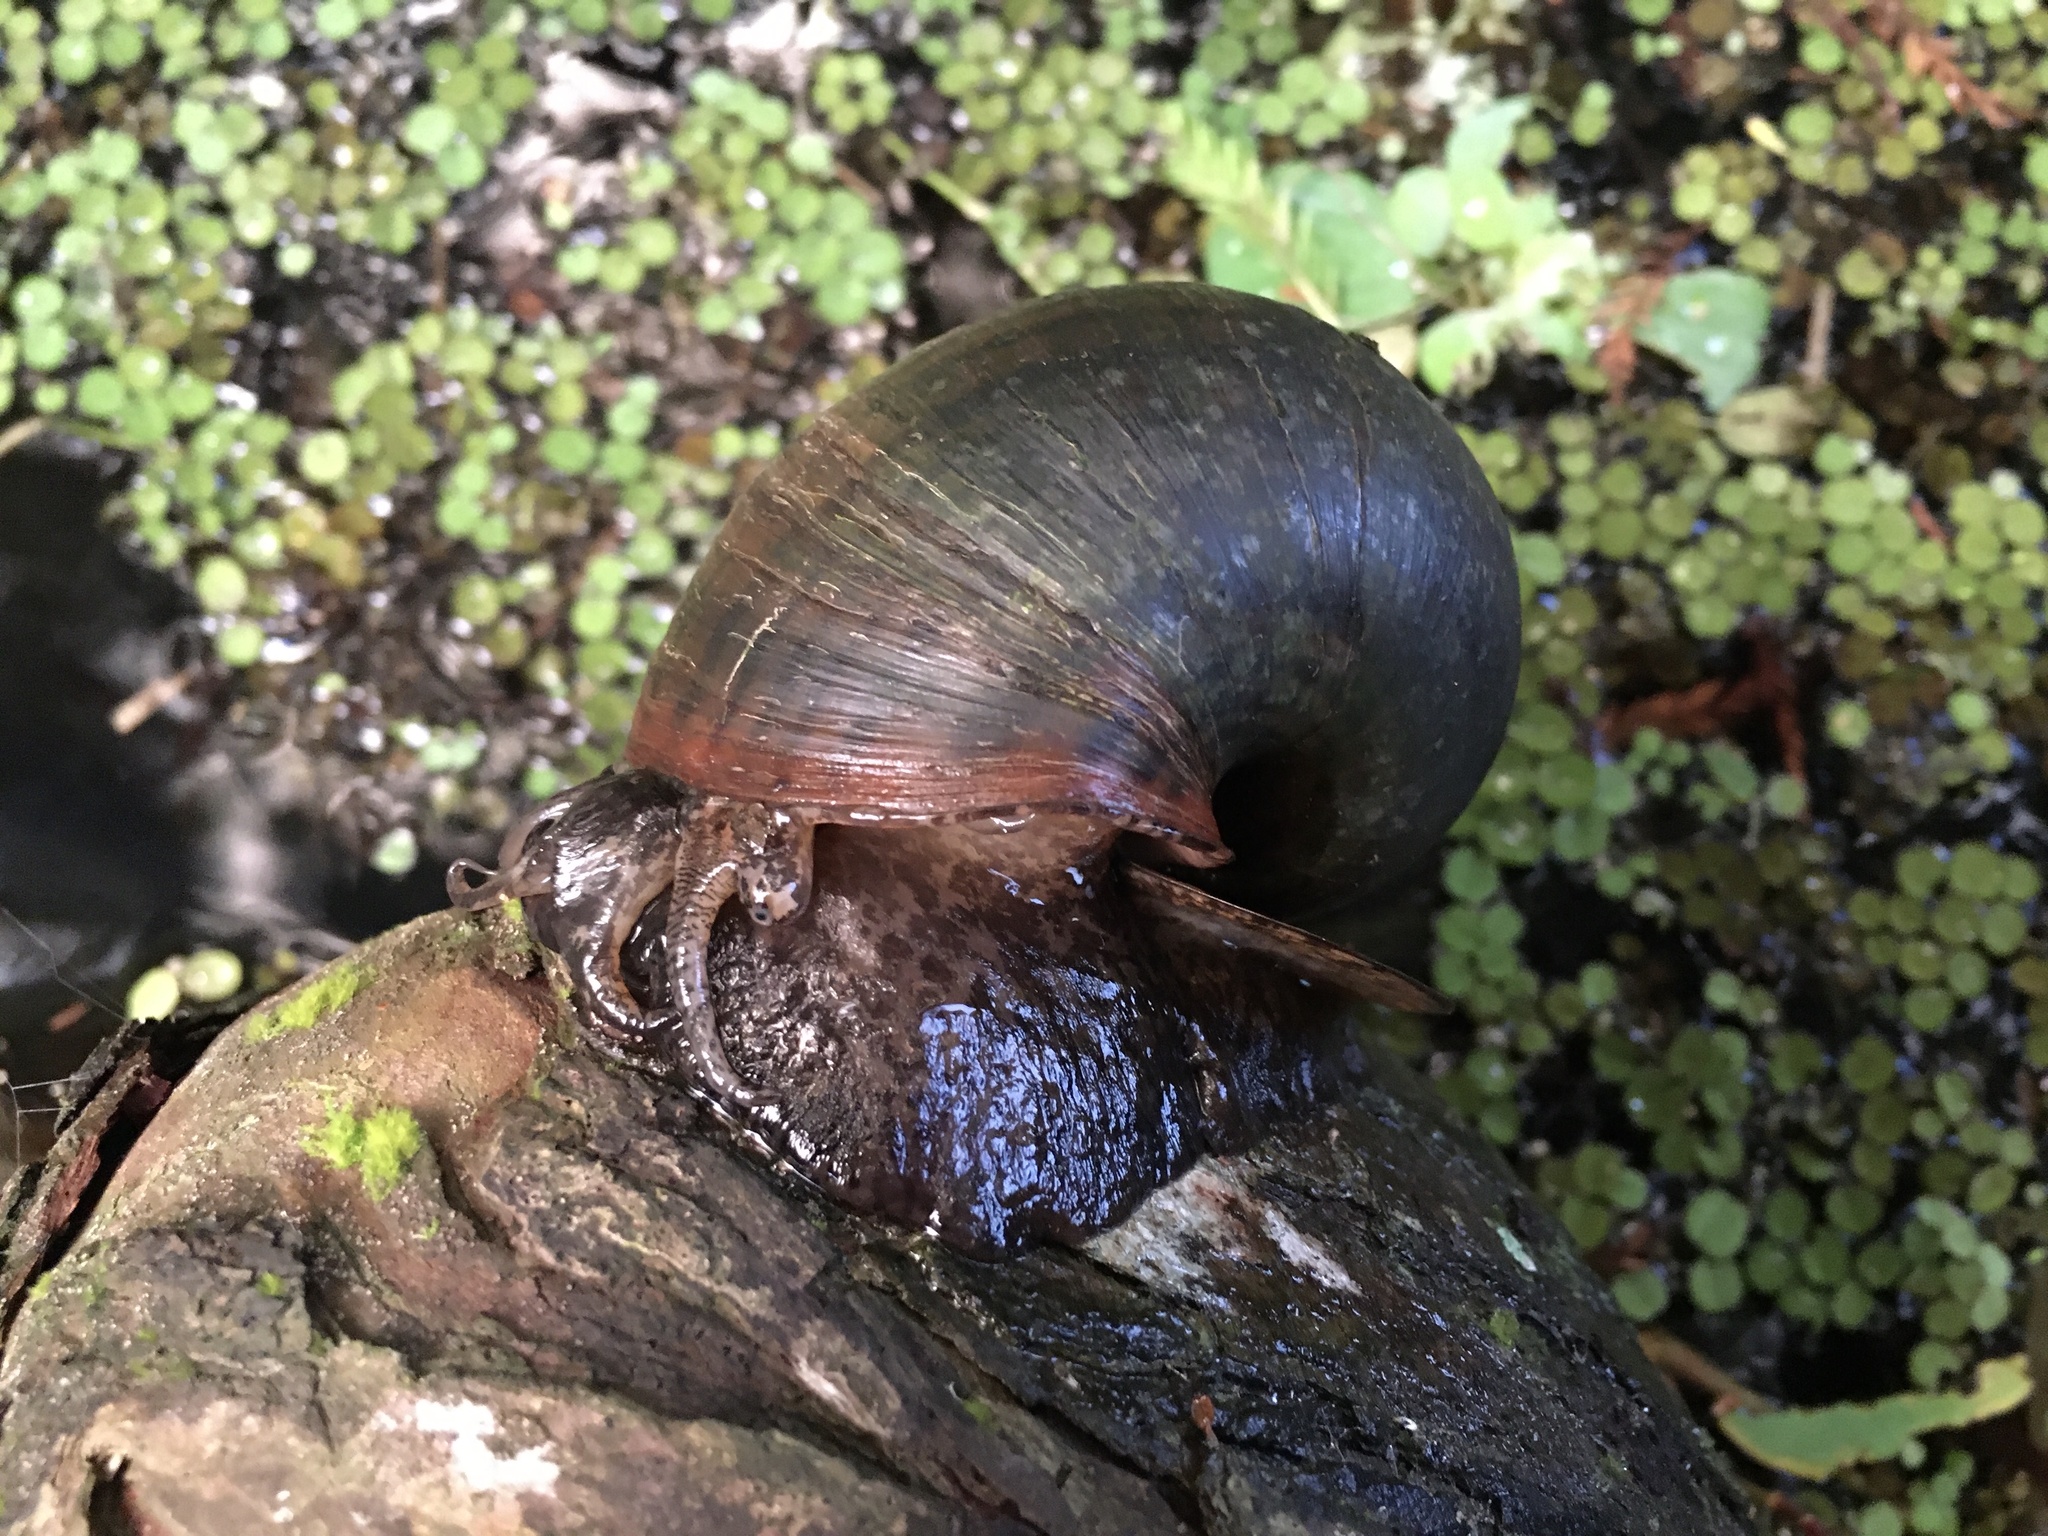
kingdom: Animalia
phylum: Mollusca
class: Gastropoda
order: Architaenioglossa
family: Ampullariidae
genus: Pomacea
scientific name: Pomacea maculata
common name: Giant applesnail
